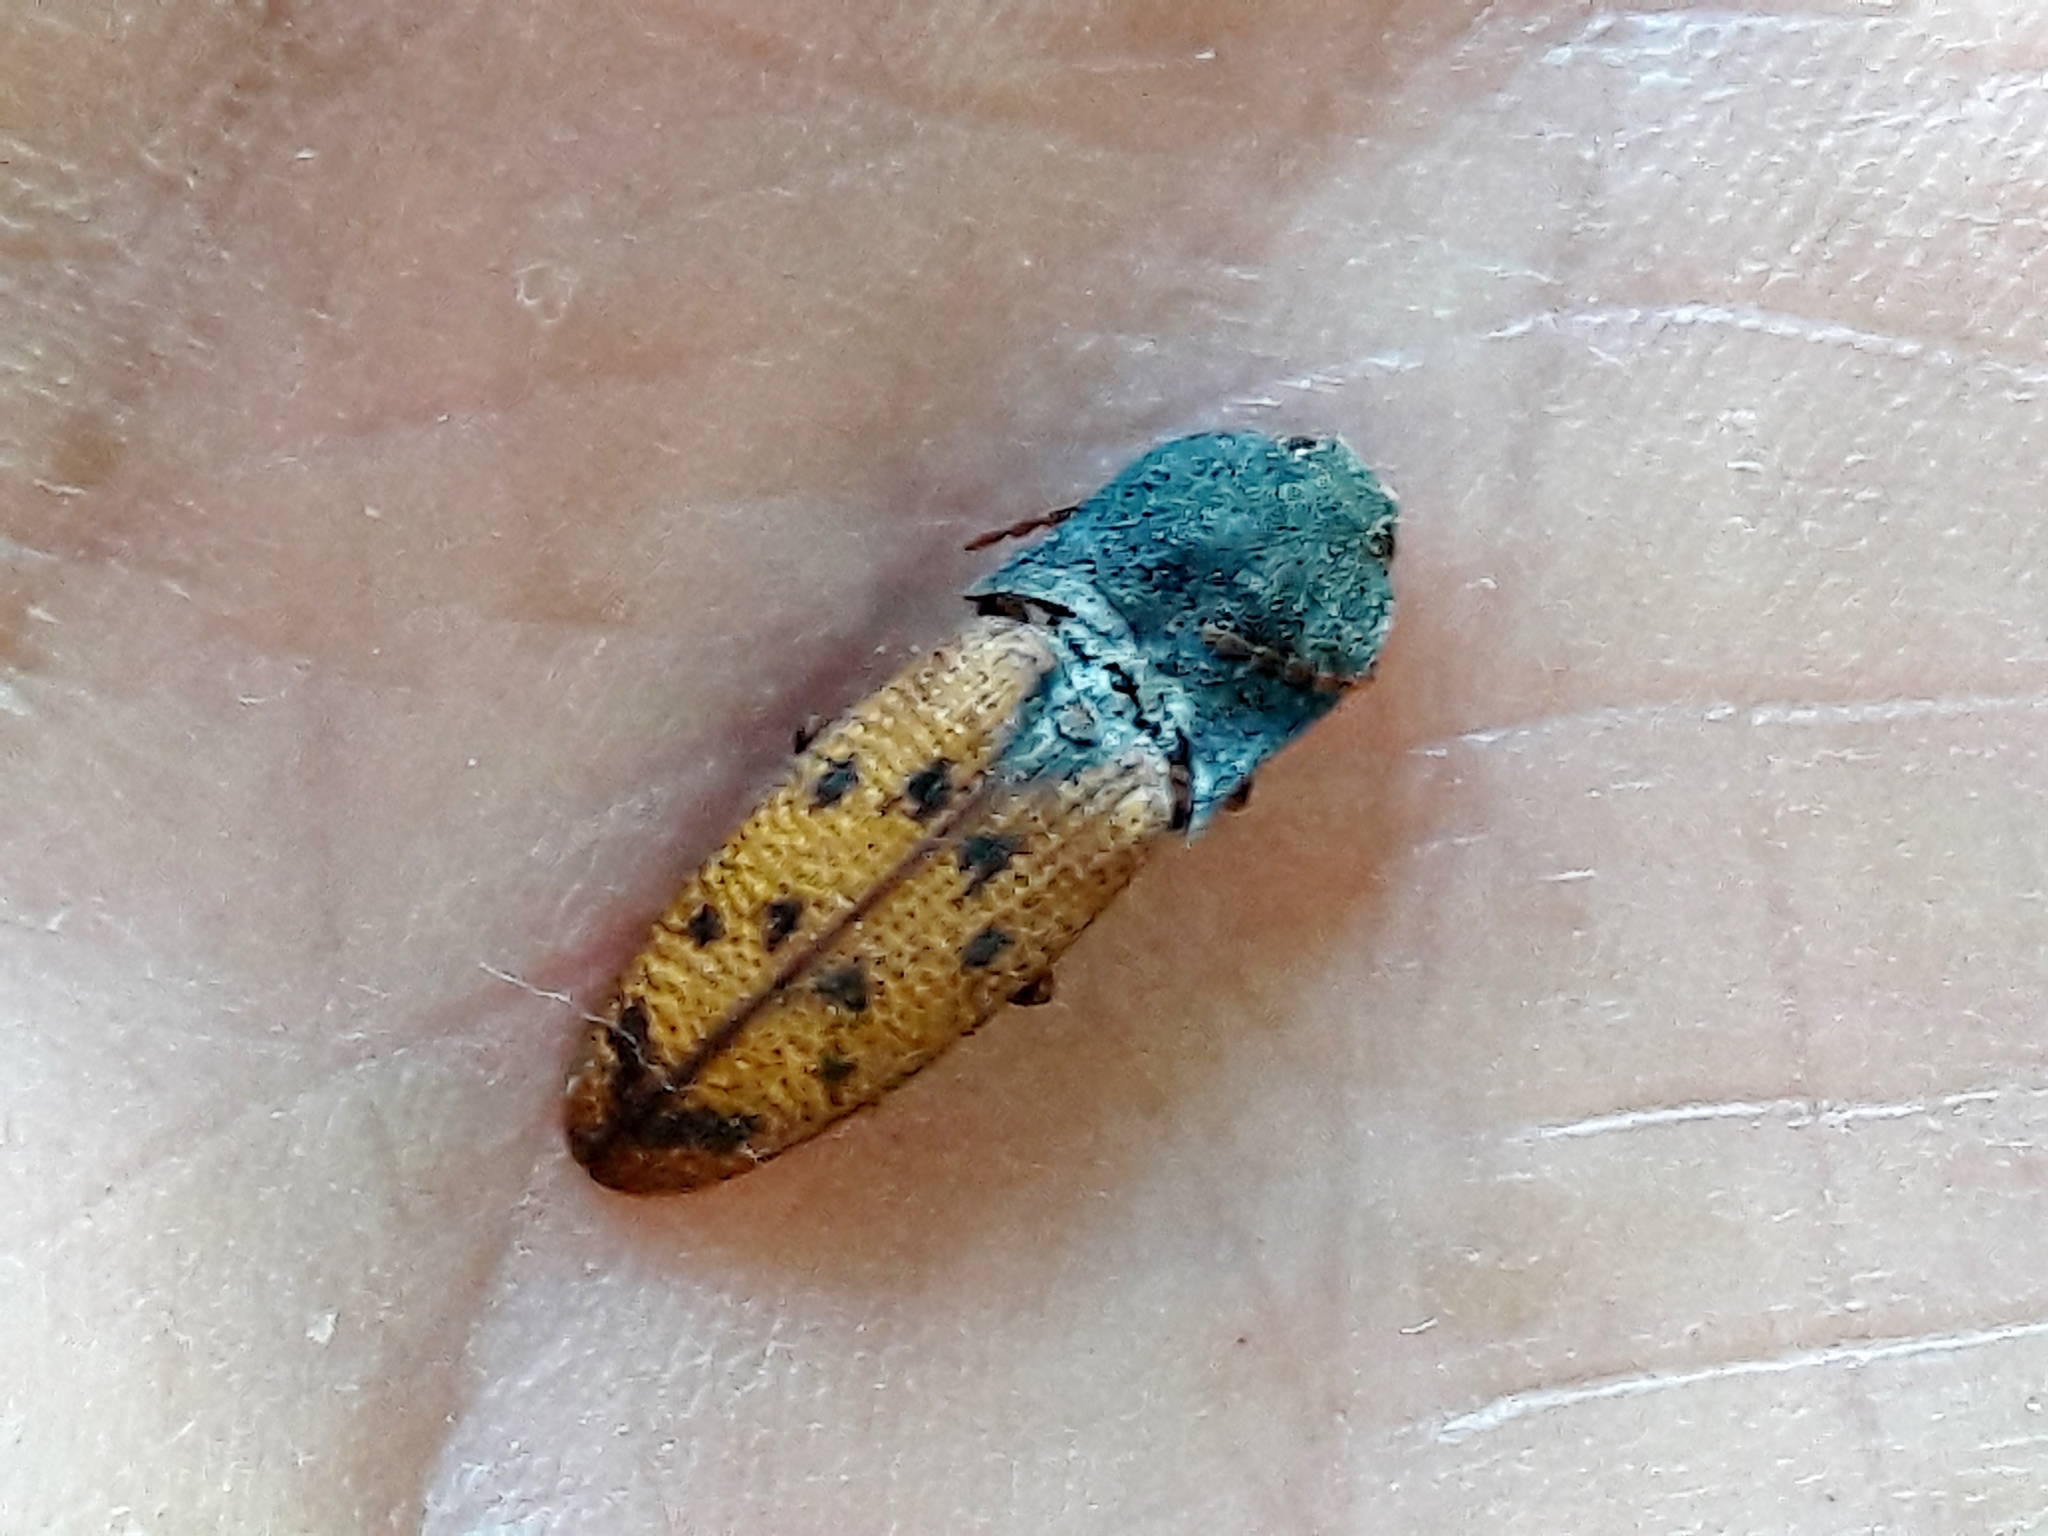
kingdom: Animalia
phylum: Arthropoda
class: Insecta
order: Coleoptera
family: Elateridae
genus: Monocrepidius
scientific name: Monocrepidius
